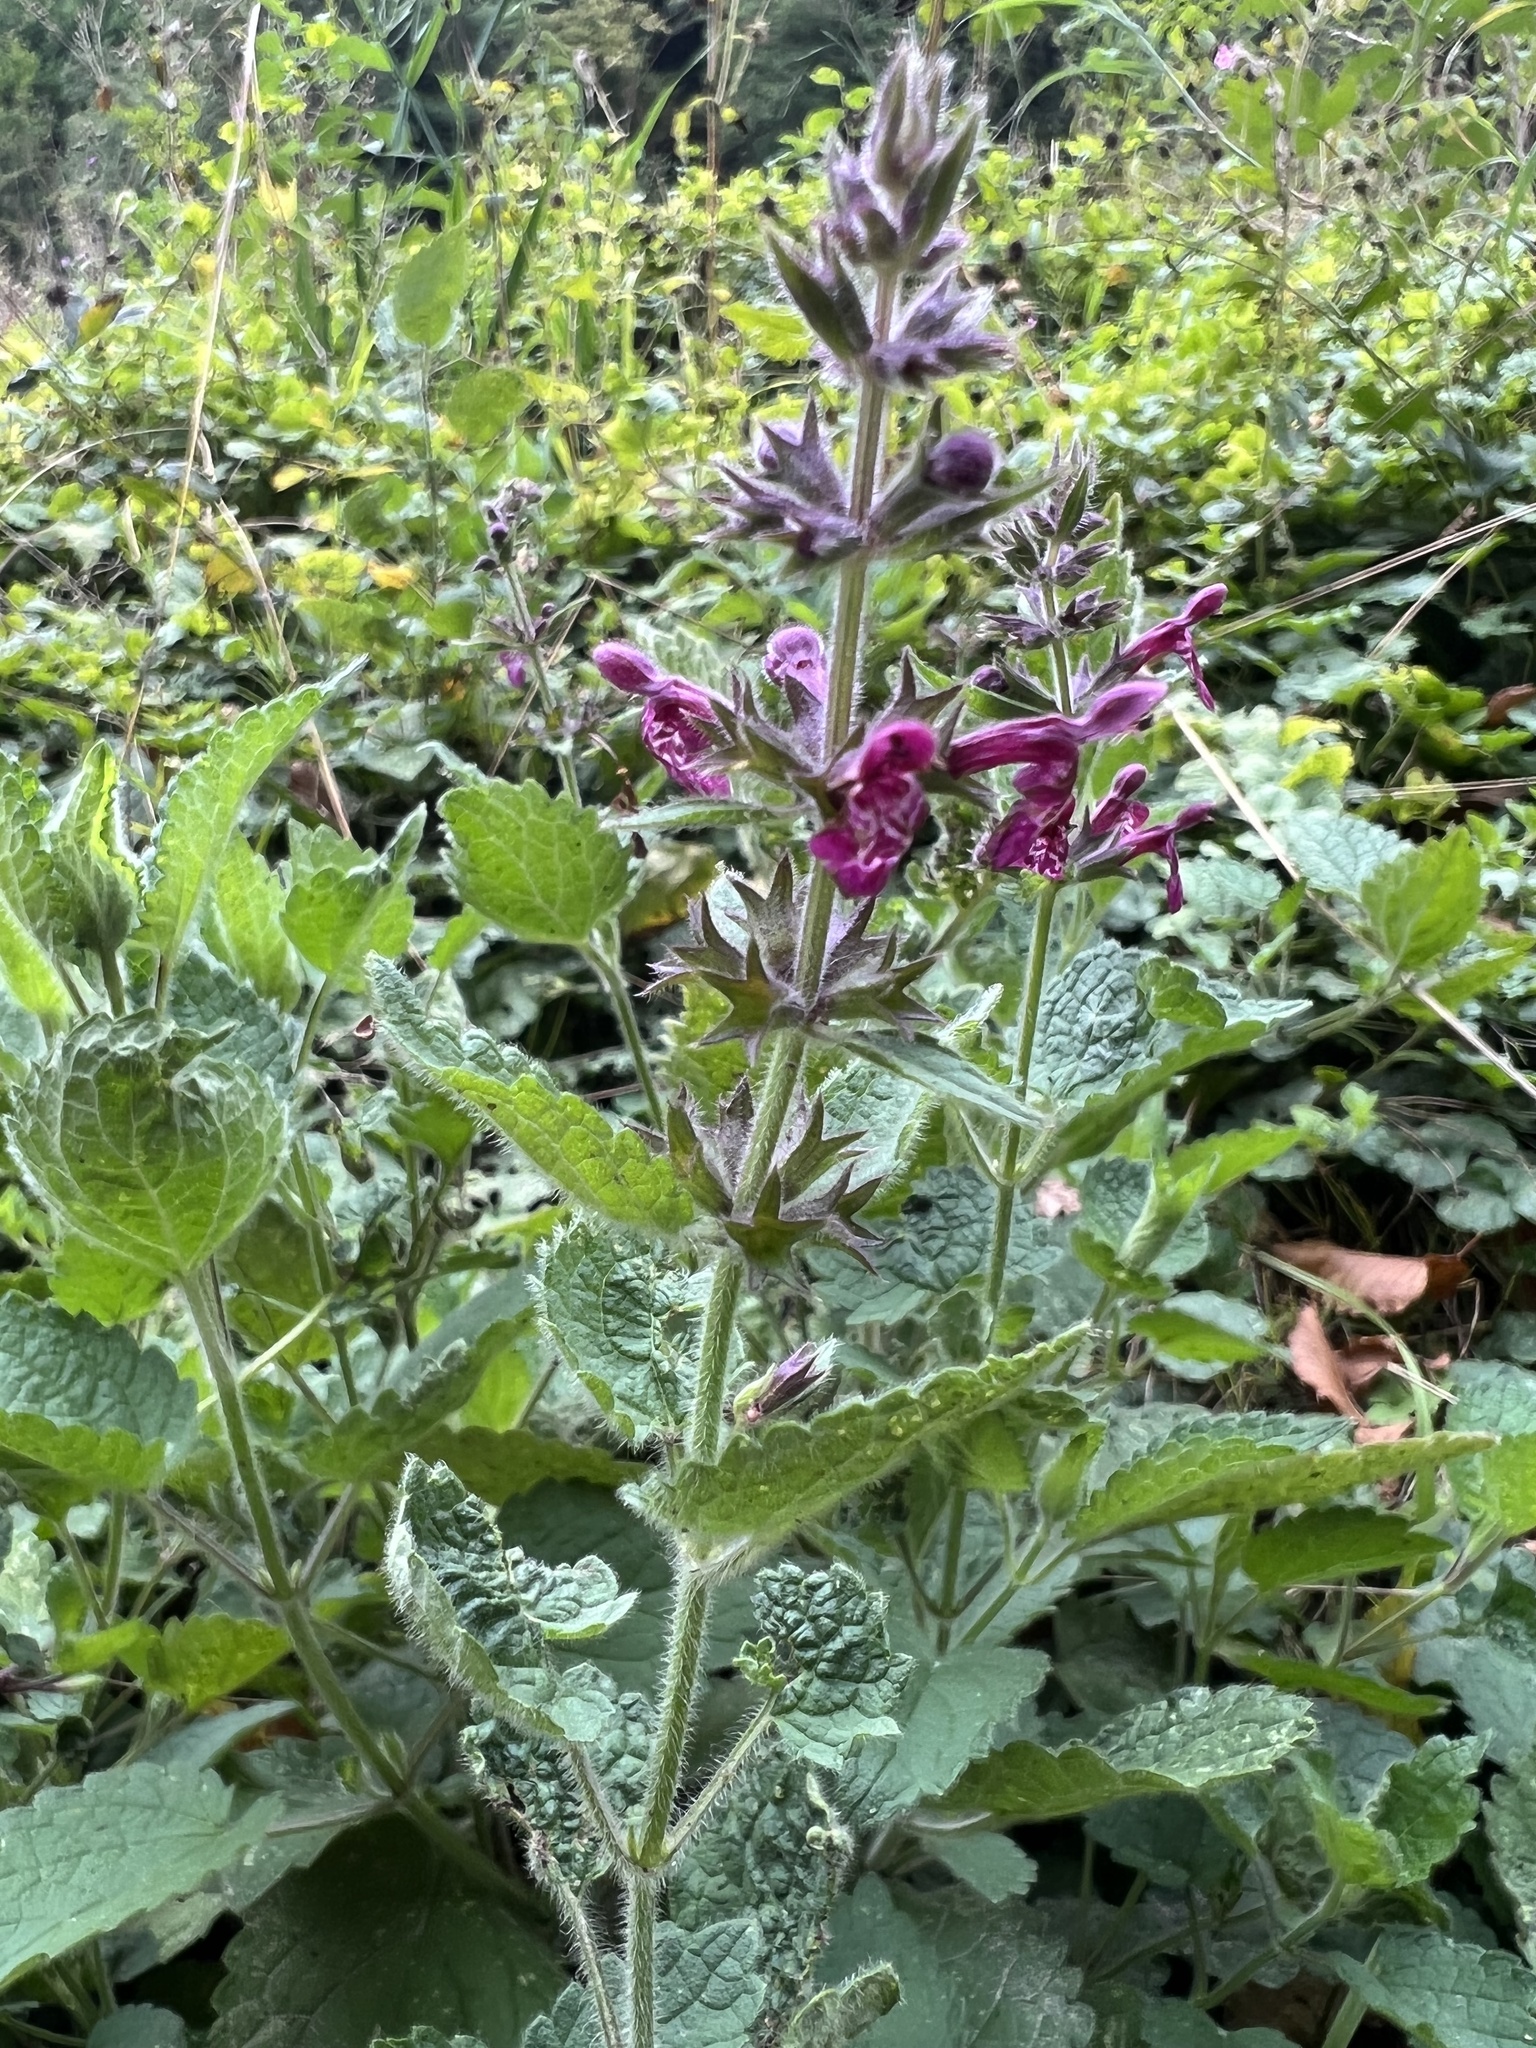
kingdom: Plantae
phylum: Tracheophyta
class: Magnoliopsida
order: Lamiales
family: Lamiaceae
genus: Stachys
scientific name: Stachys sylvatica
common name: Hedge woundwort
